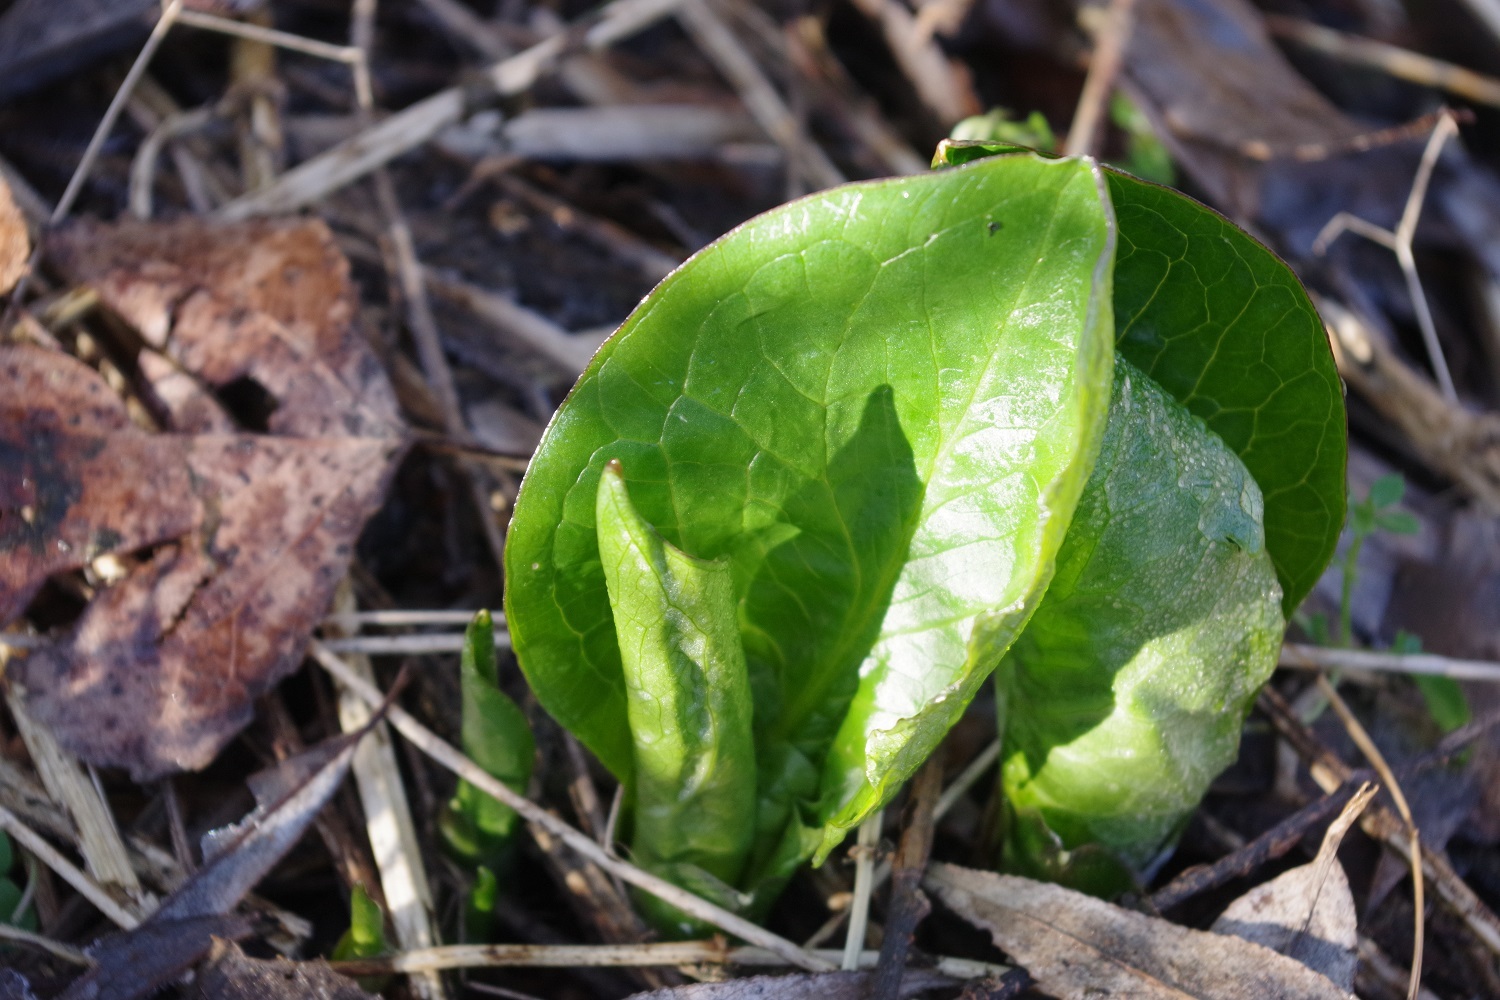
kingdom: Plantae
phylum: Tracheophyta
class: Liliopsida
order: Alismatales
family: Araceae
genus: Arum
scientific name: Arum maculatum
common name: Lords-and-ladies
